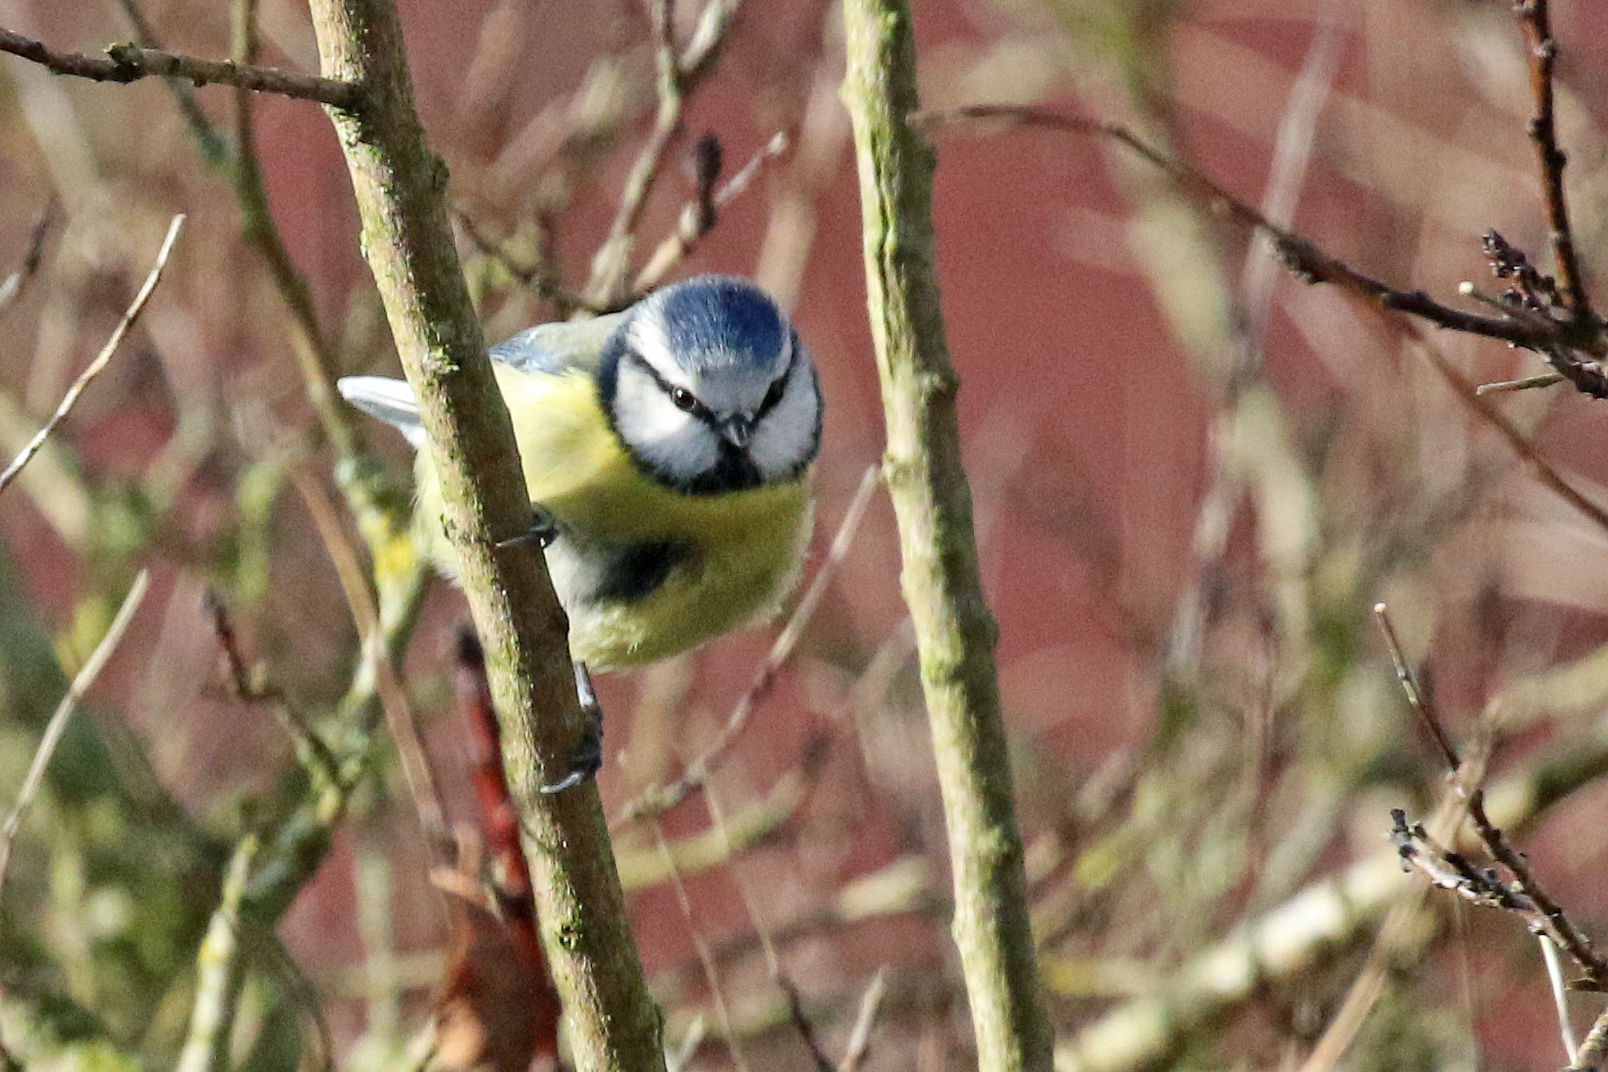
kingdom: Animalia
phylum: Chordata
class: Aves
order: Passeriformes
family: Paridae
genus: Cyanistes
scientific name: Cyanistes caeruleus
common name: Eurasian blue tit
